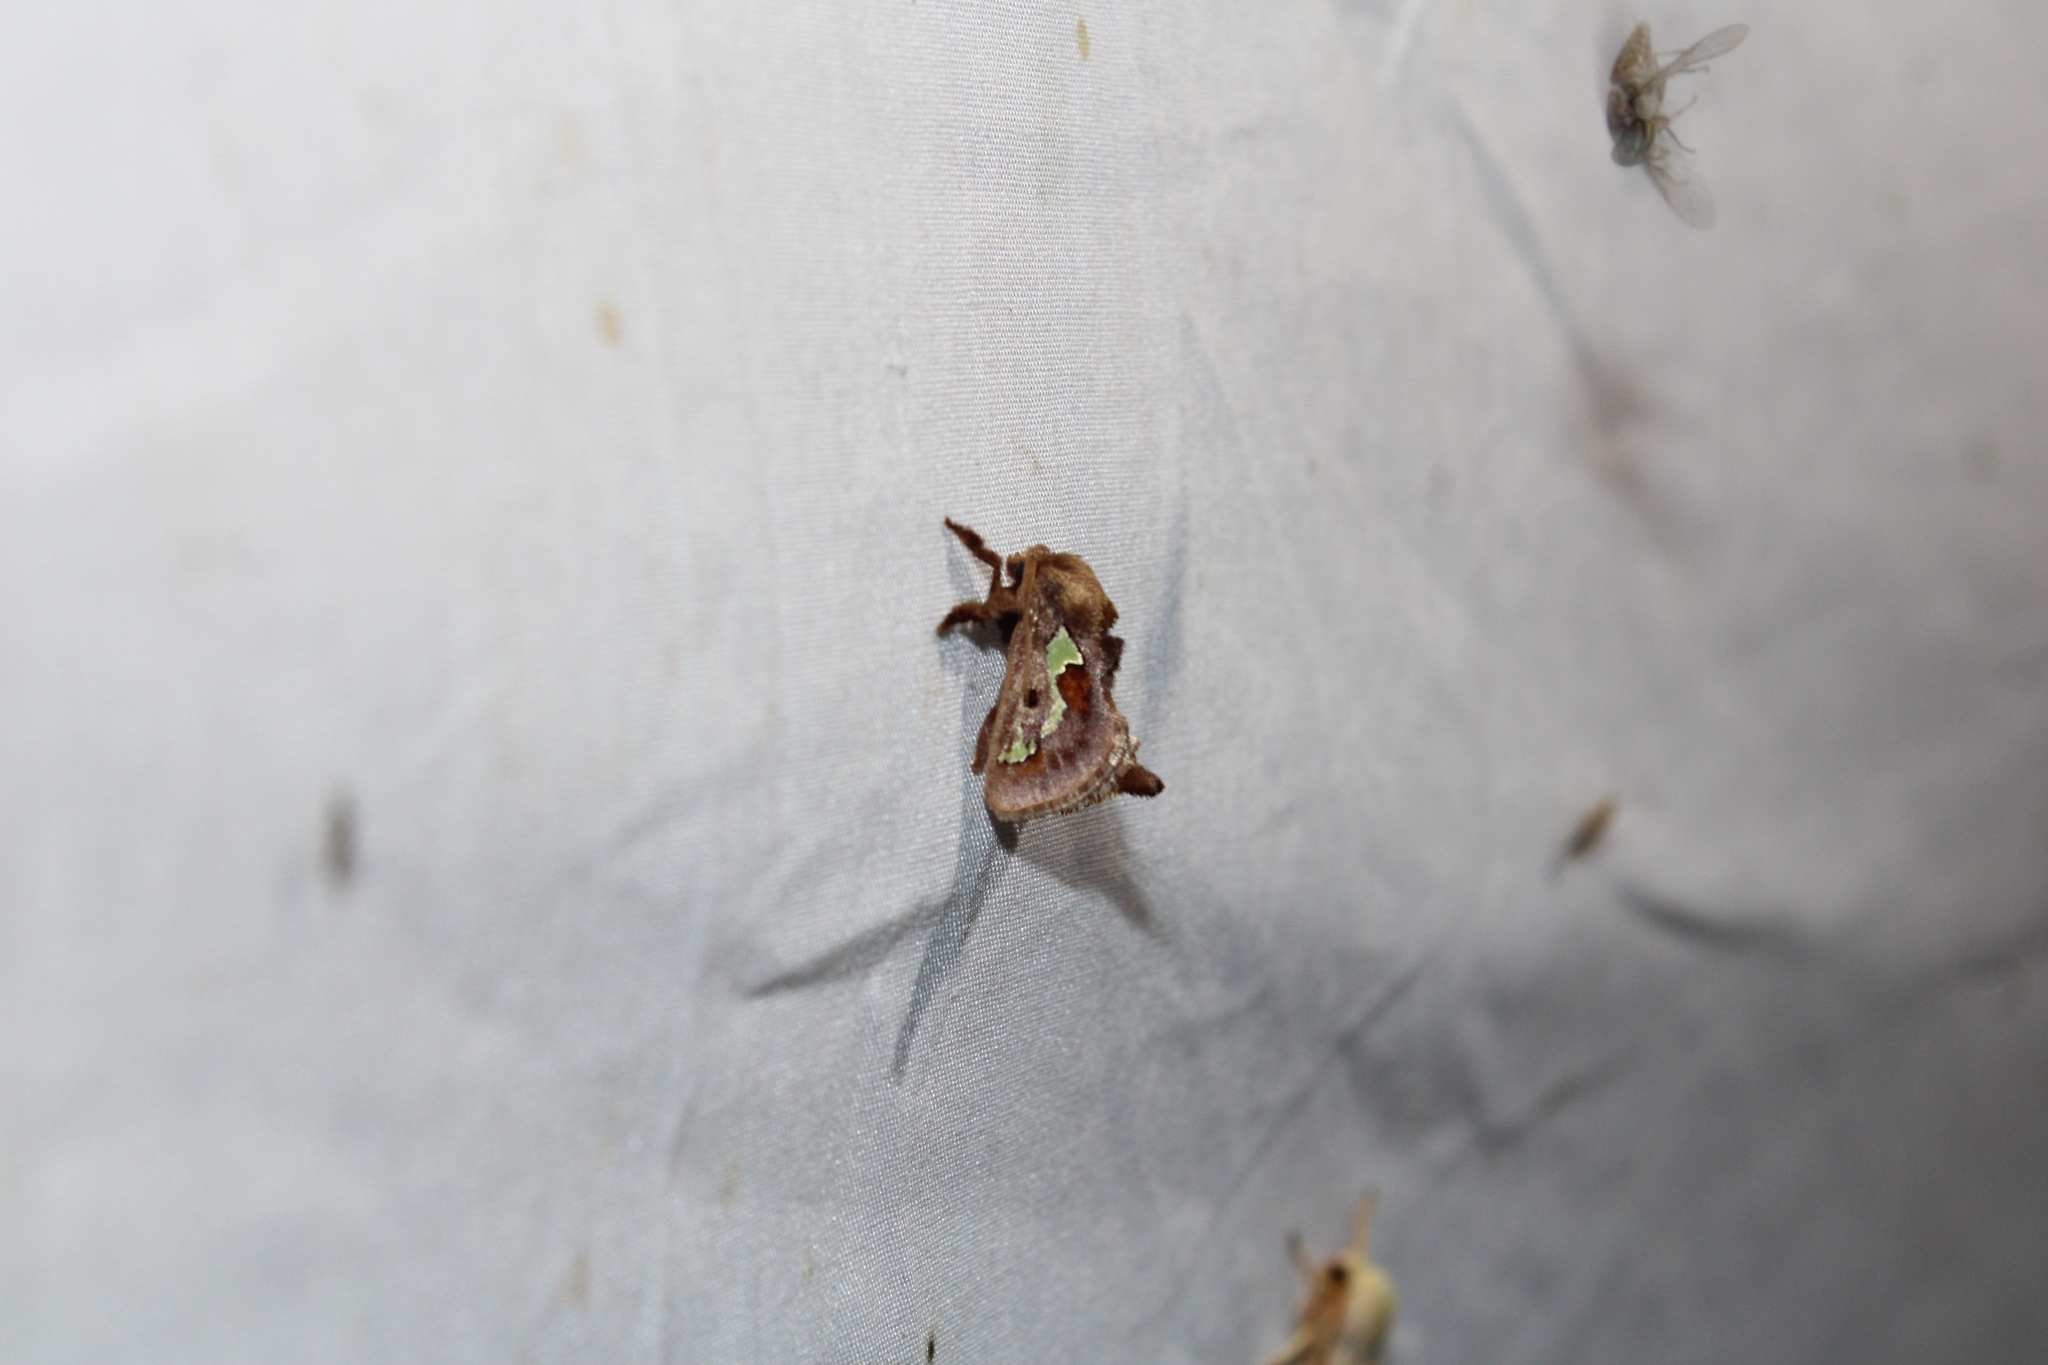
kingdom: Animalia
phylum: Arthropoda
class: Insecta
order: Lepidoptera
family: Limacodidae
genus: Euclea
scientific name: Euclea delphinii
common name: Spiny oak-slug moth
